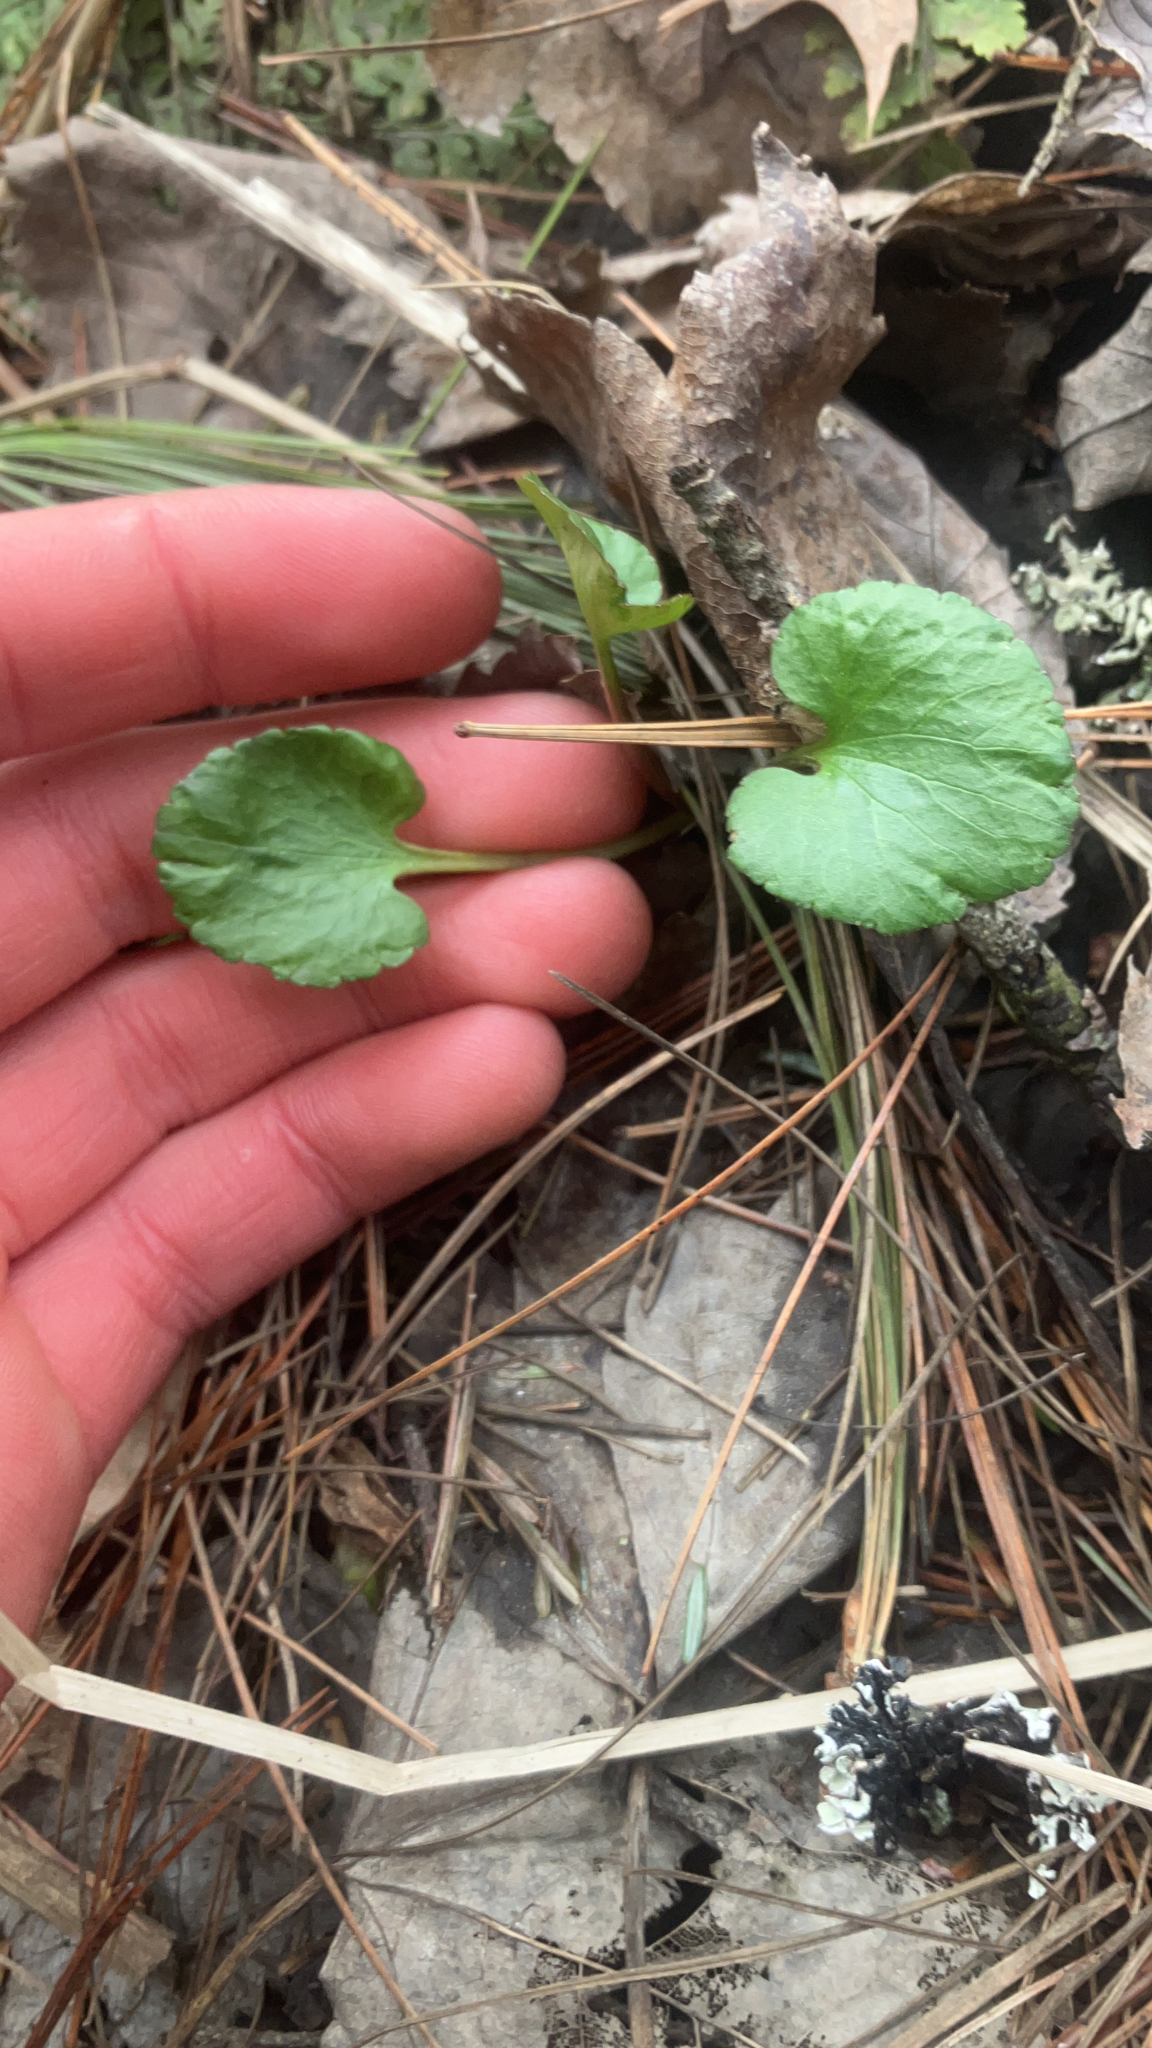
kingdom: Plantae
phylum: Tracheophyta
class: Magnoliopsida
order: Ranunculales
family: Ranunculaceae
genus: Ranunculus
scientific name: Ranunculus abortivus
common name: Early wood buttercup
